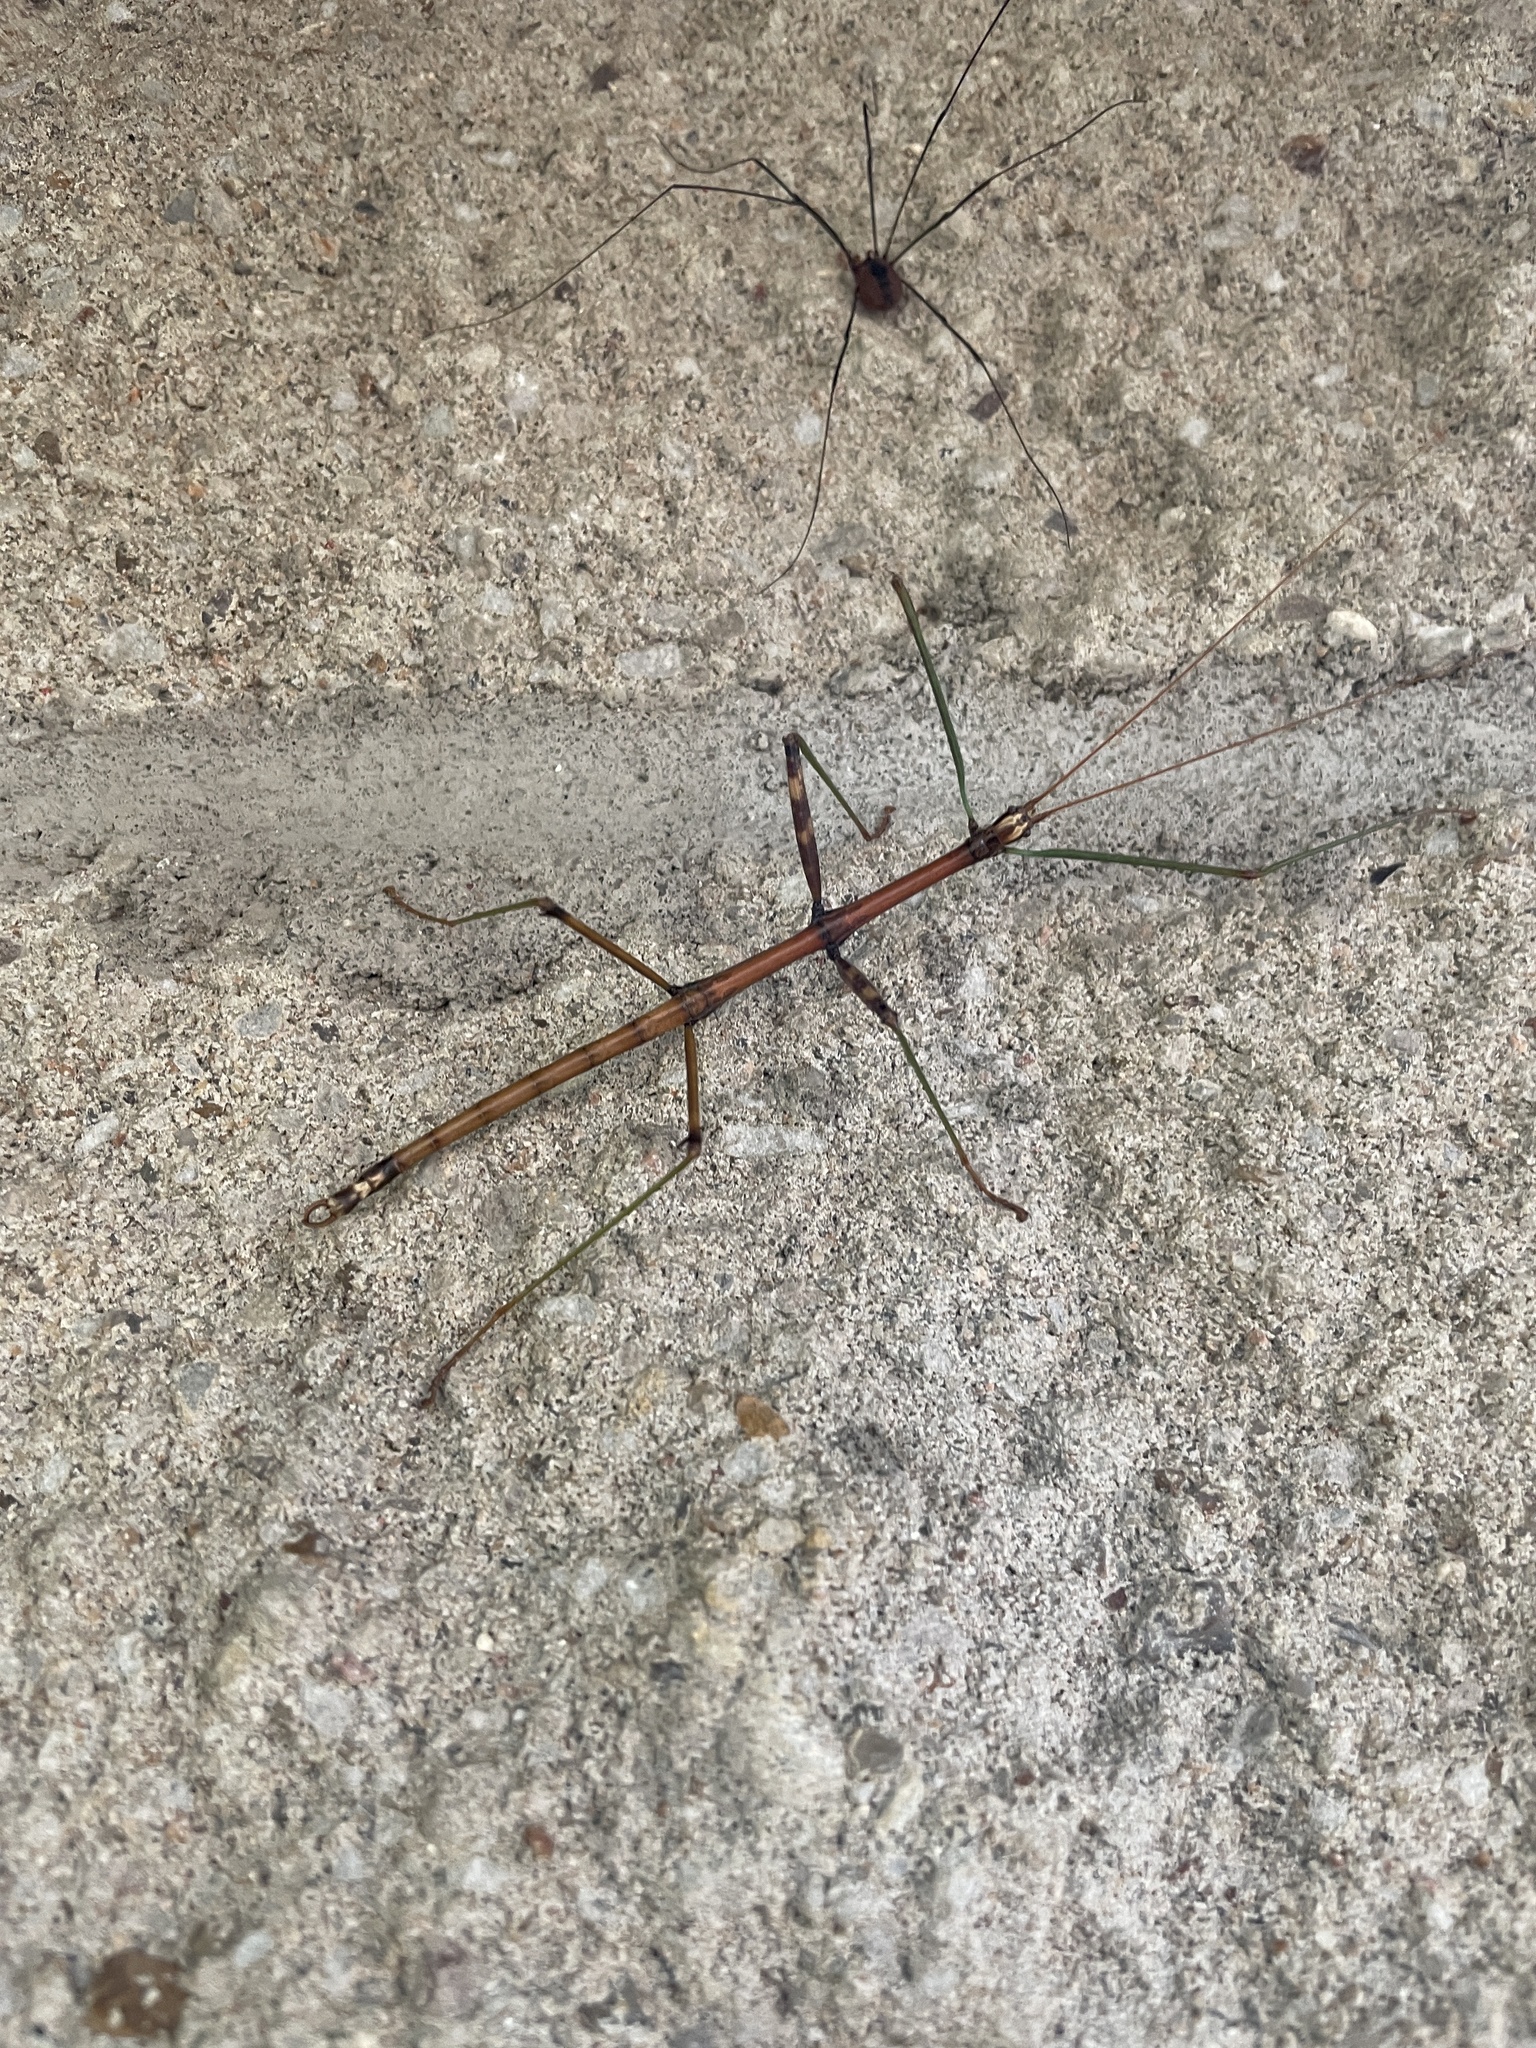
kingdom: Animalia
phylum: Arthropoda
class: Insecta
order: Phasmida
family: Diapheromeridae
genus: Diapheromera
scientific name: Diapheromera femorata
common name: Common american walkingstick
